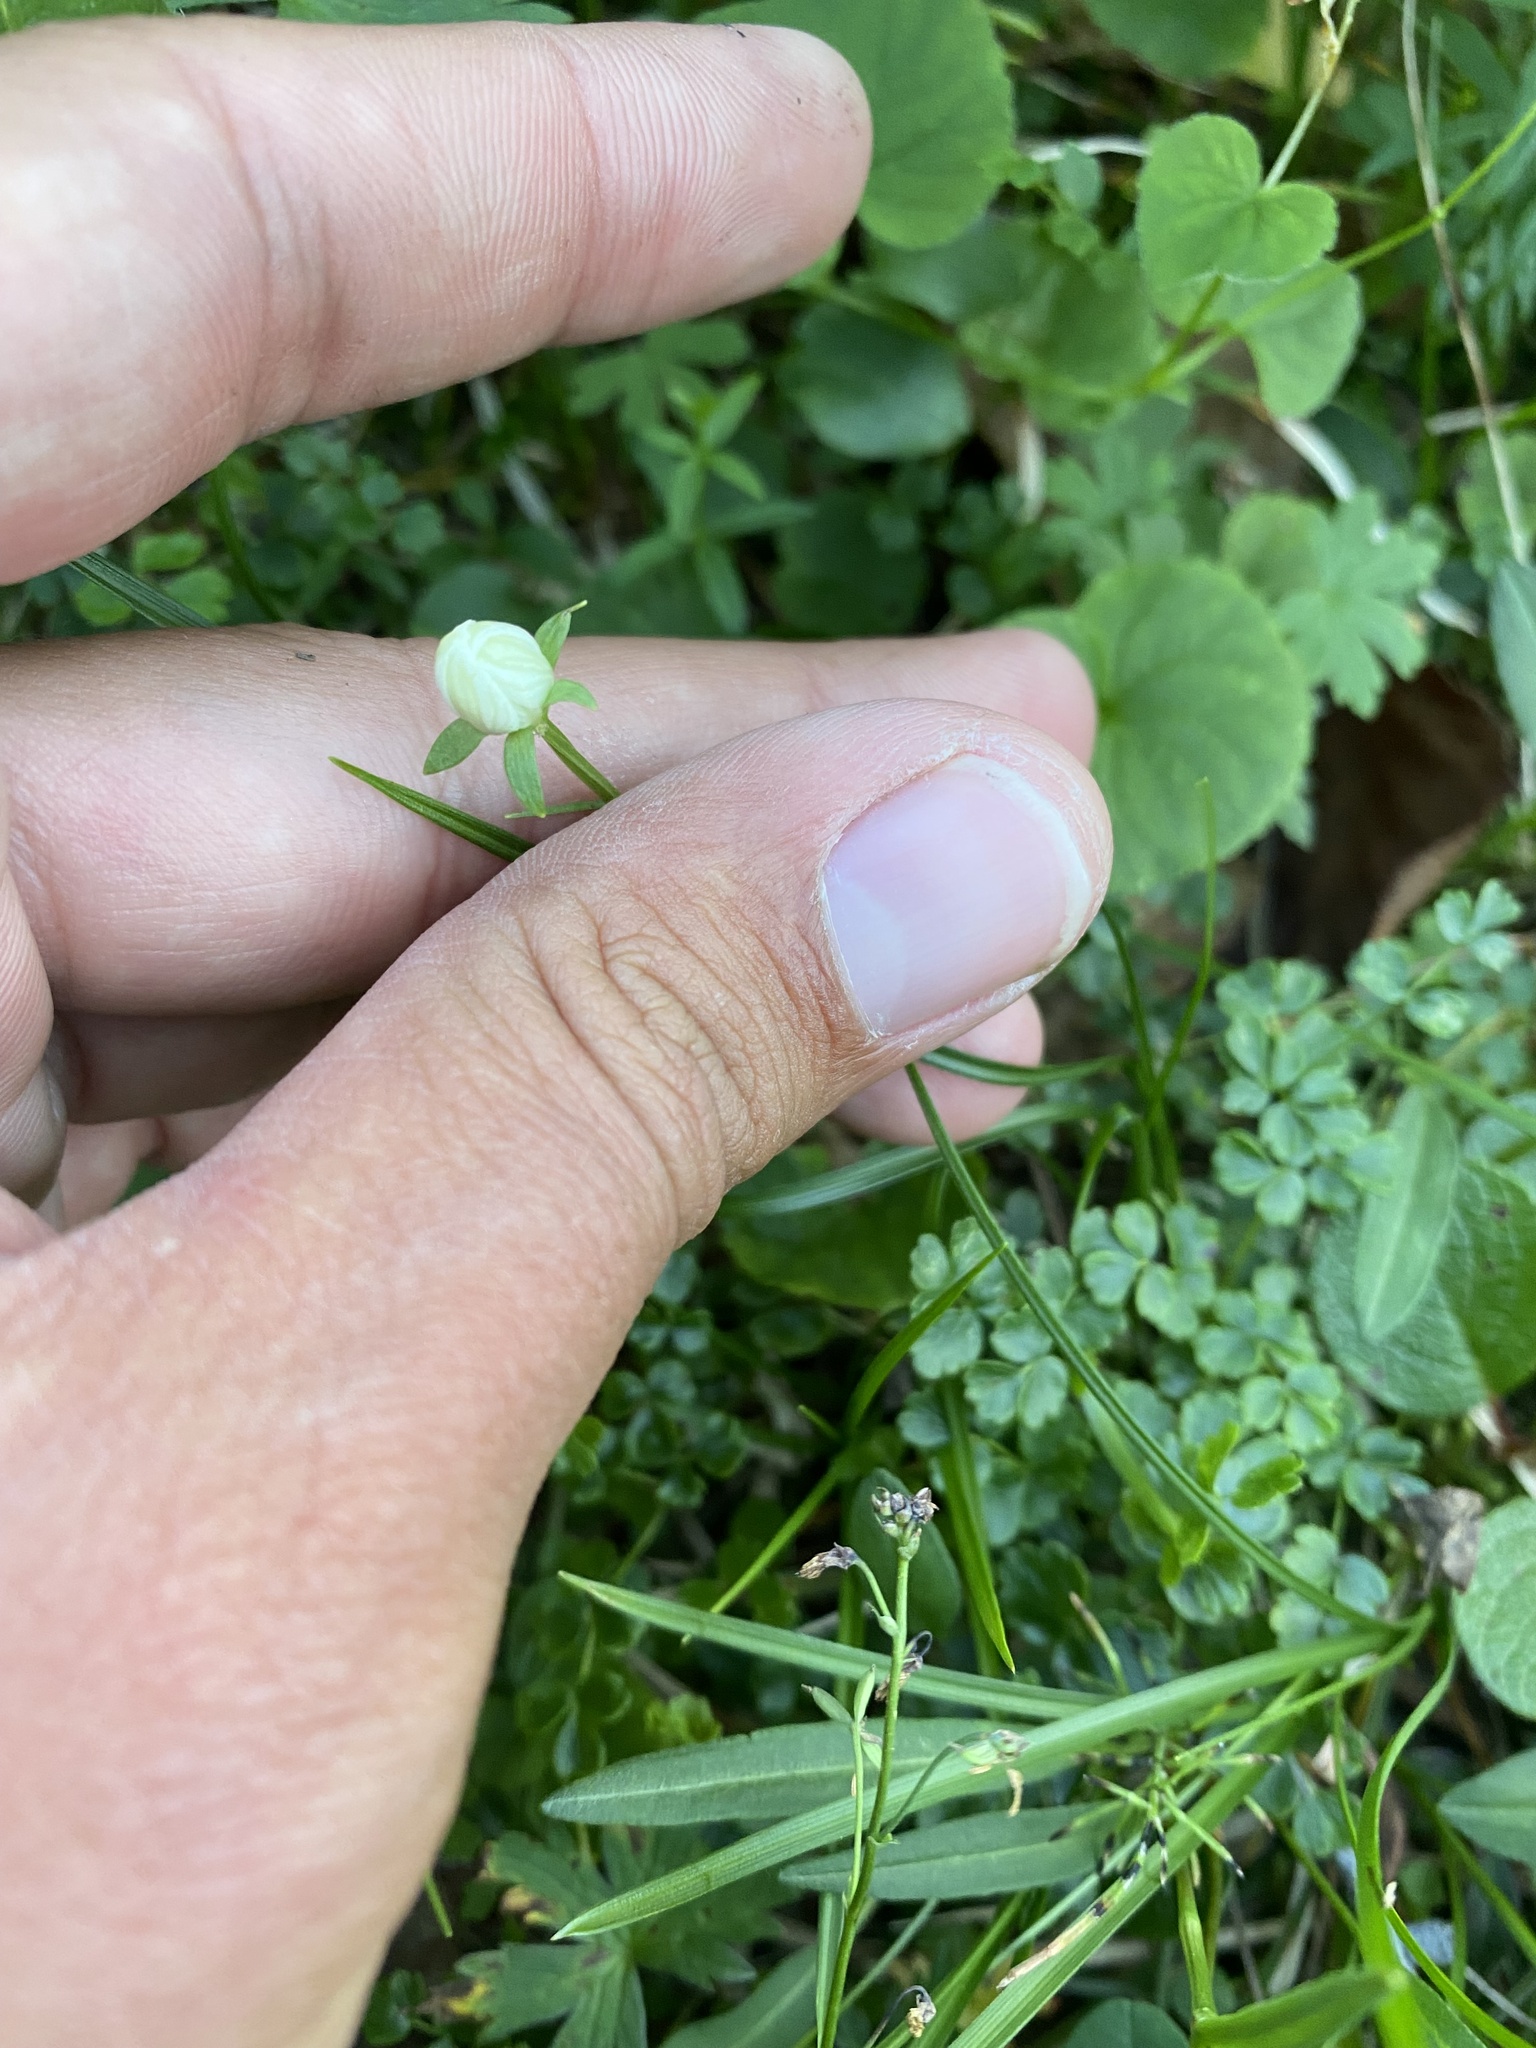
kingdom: Plantae
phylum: Tracheophyta
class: Magnoliopsida
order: Celastrales
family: Parnassiaceae
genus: Parnassia
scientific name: Parnassia palustris
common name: Grass-of-parnassus
